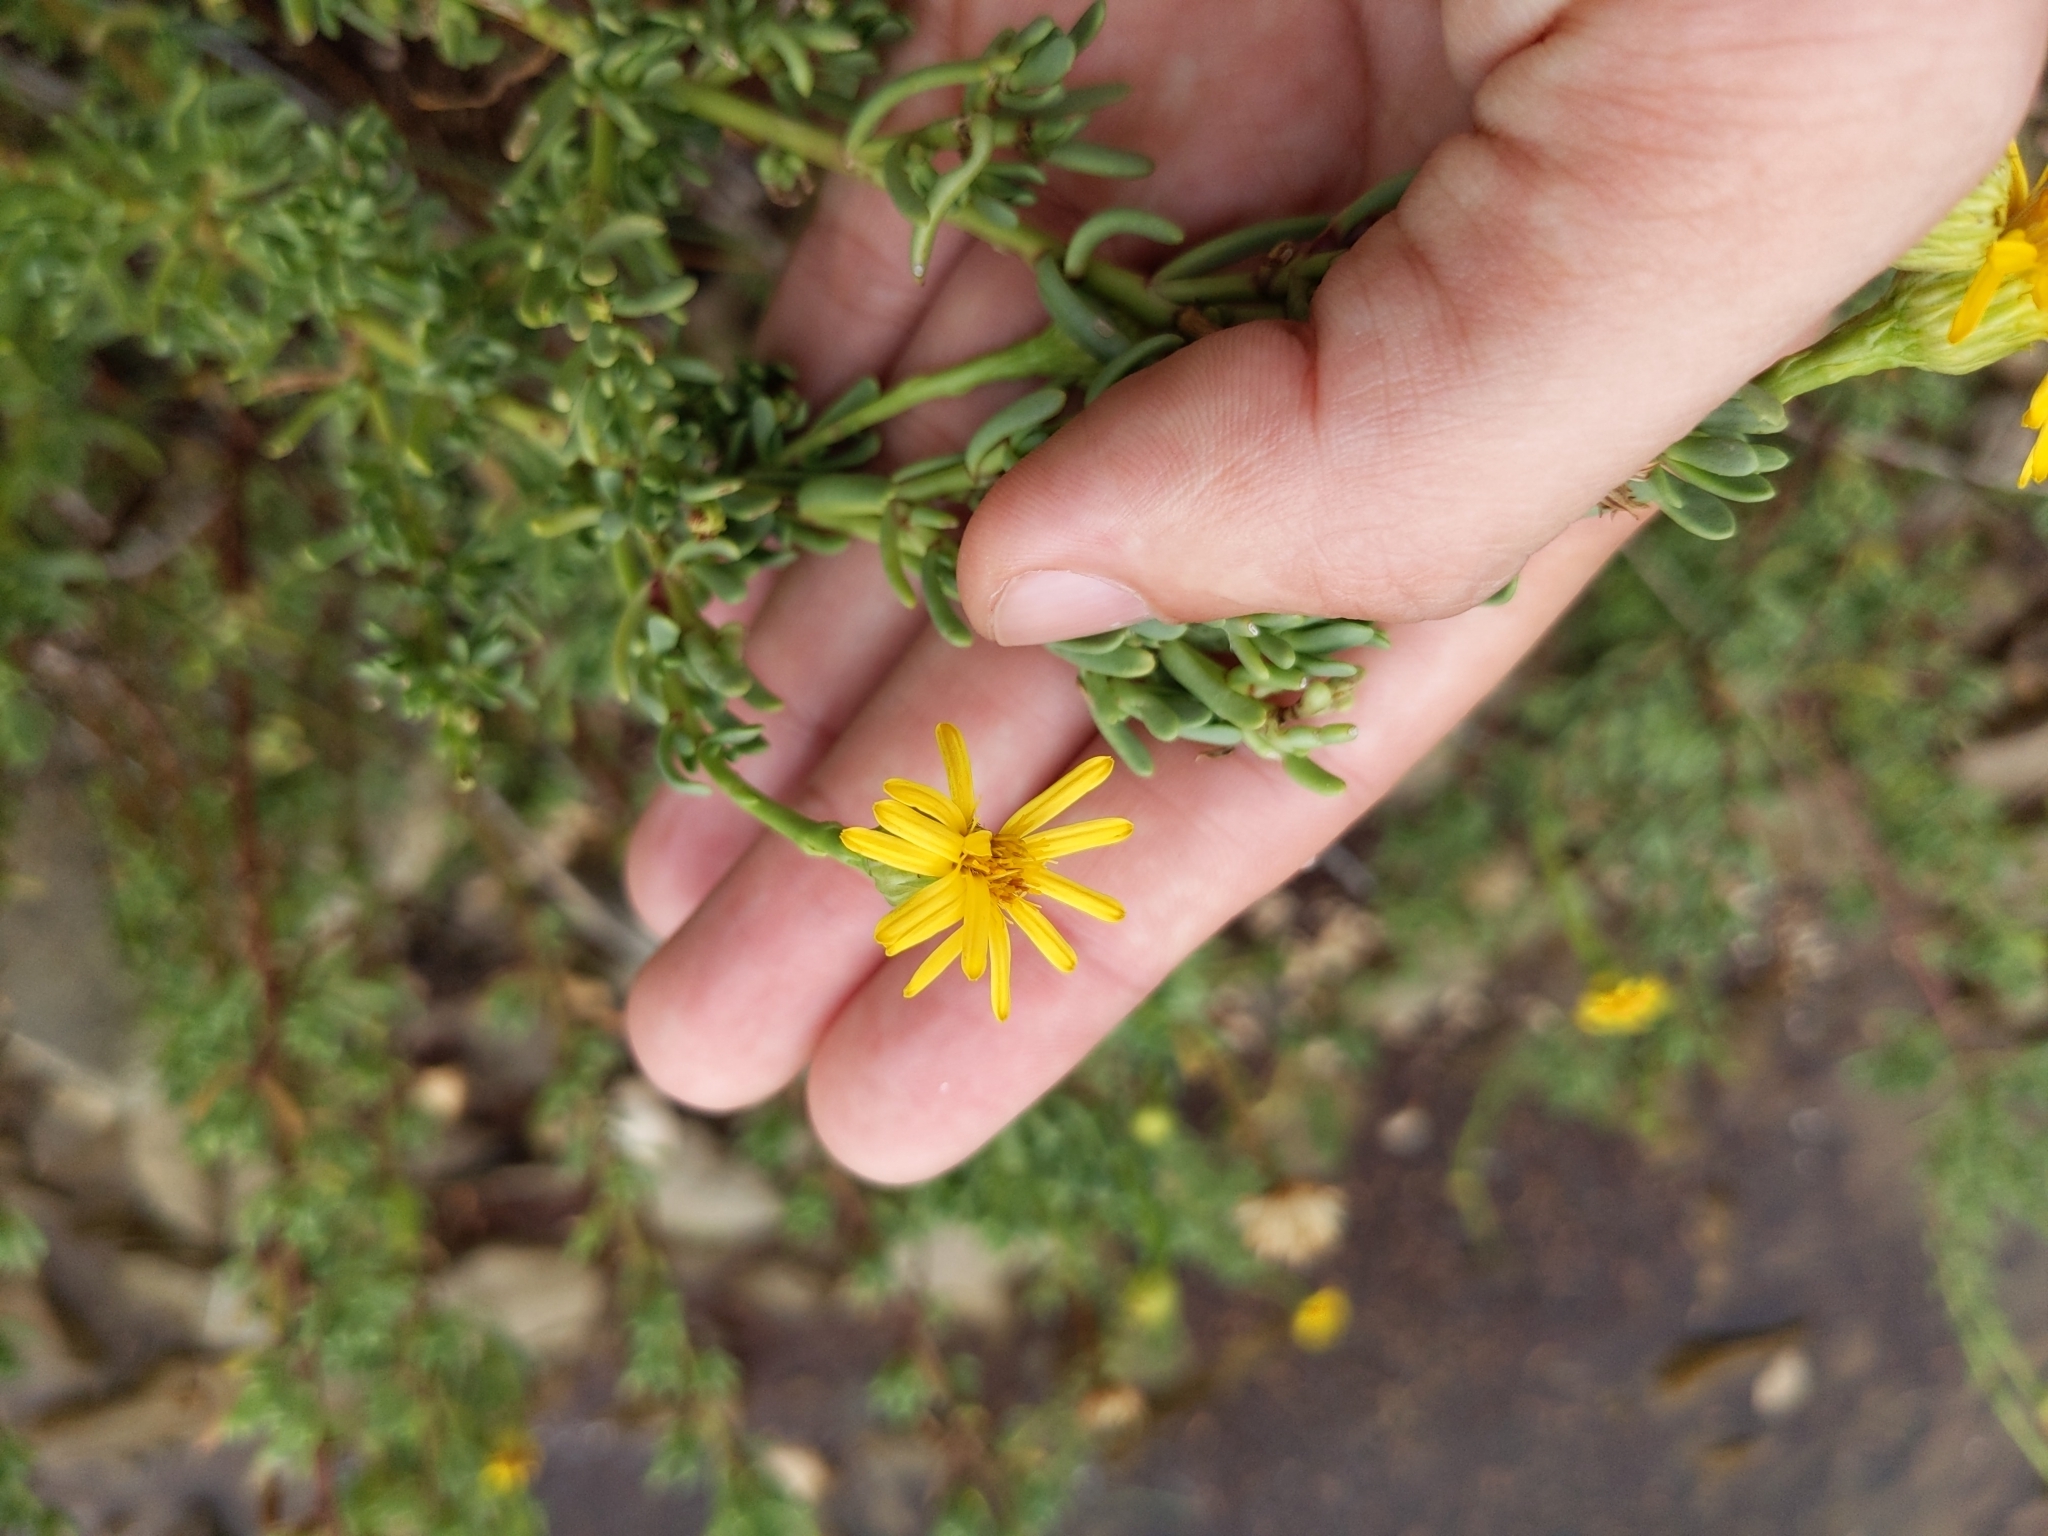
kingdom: Plantae
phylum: Tracheophyta
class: Magnoliopsida
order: Asterales
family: Asteraceae
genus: Limbarda
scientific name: Limbarda crithmoides
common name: Golden samphire
